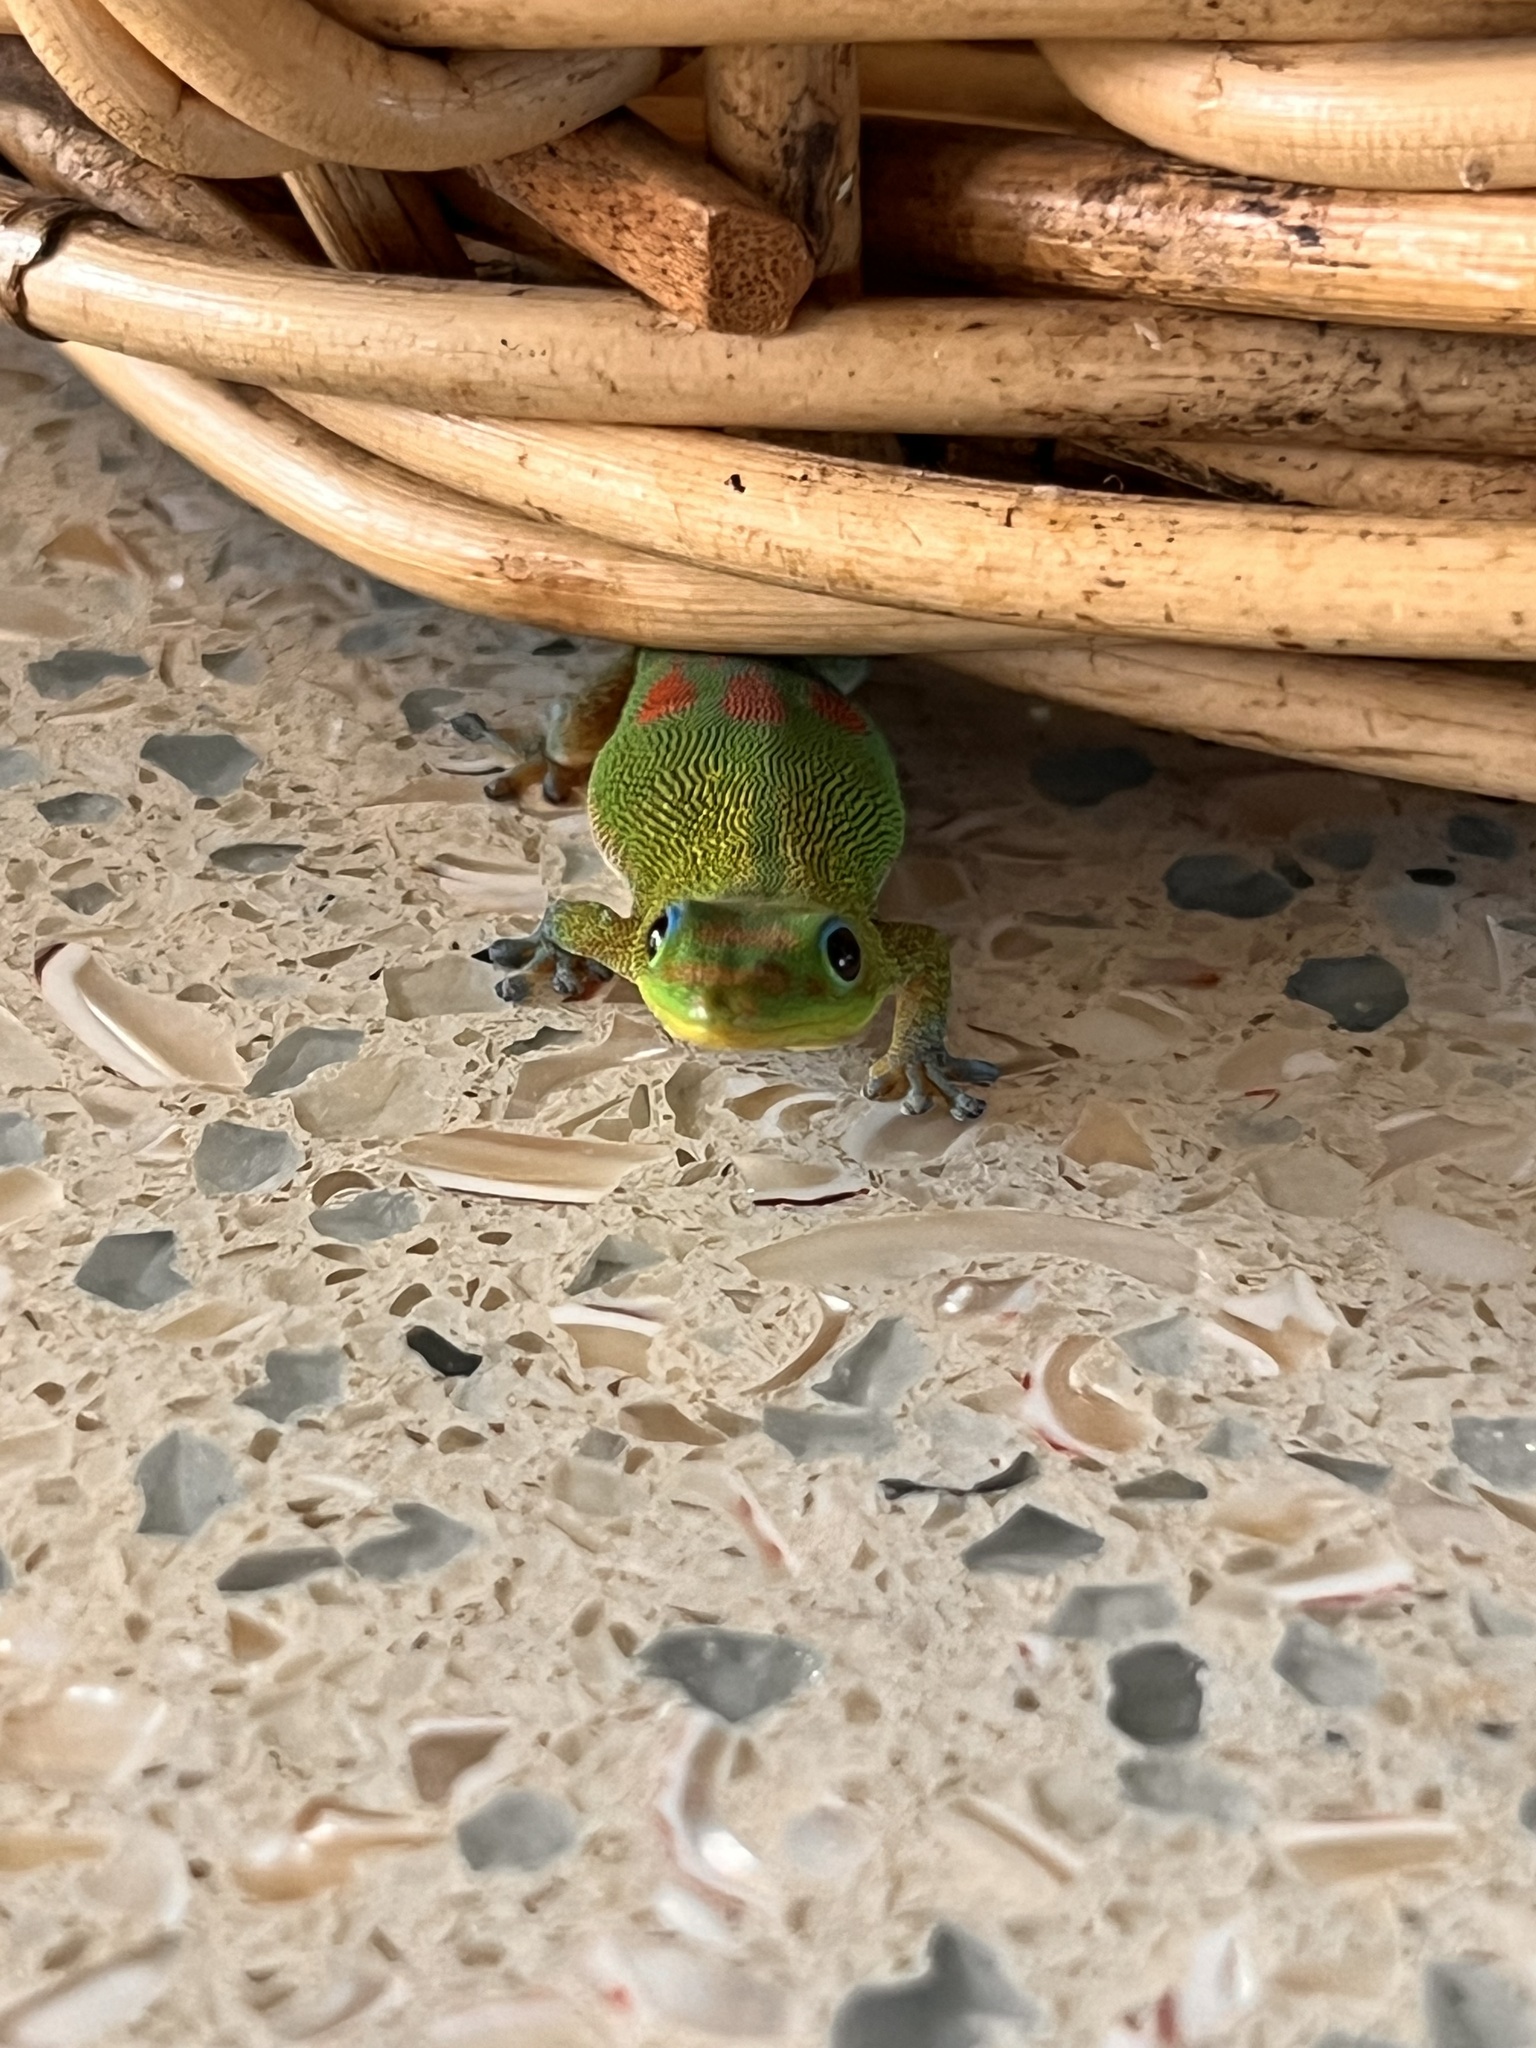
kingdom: Animalia
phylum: Chordata
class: Squamata
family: Gekkonidae
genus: Phelsuma
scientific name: Phelsuma laticauda
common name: Gold dust day gecko
